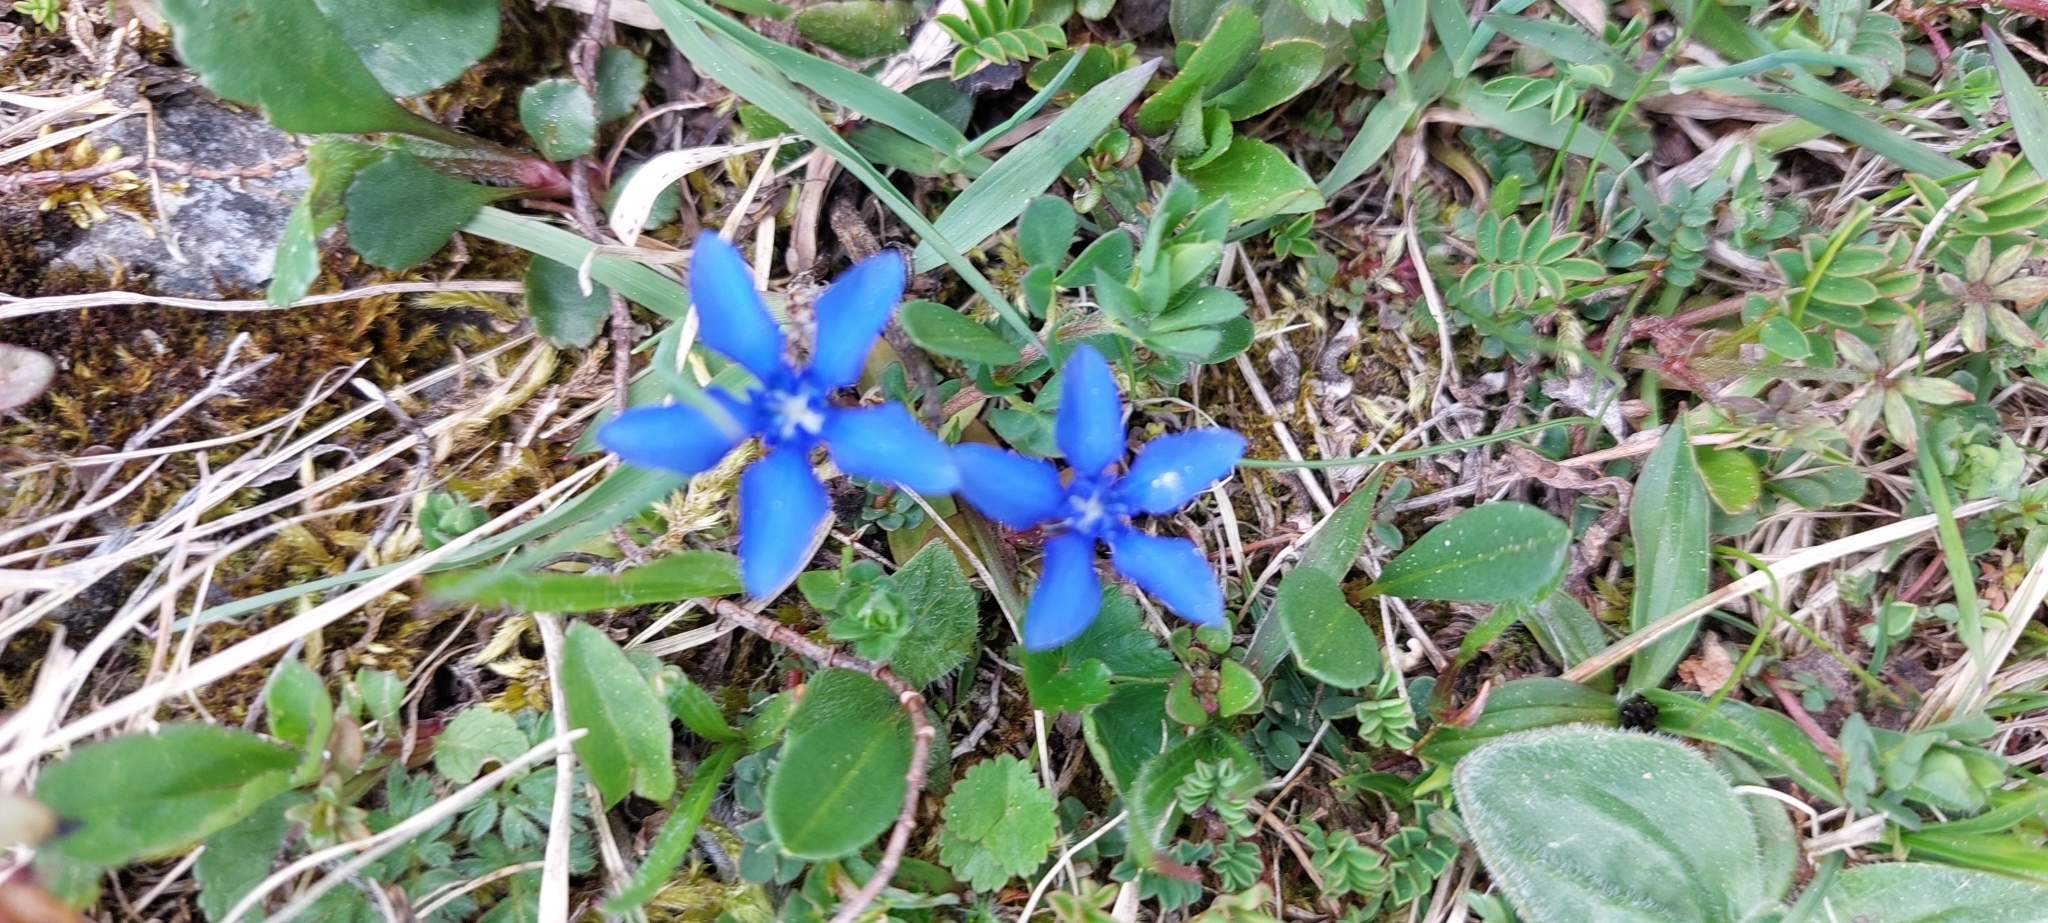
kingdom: Plantae
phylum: Tracheophyta
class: Magnoliopsida
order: Gentianales
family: Gentianaceae
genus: Gentiana
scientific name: Gentiana verna
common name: Spring gentian
